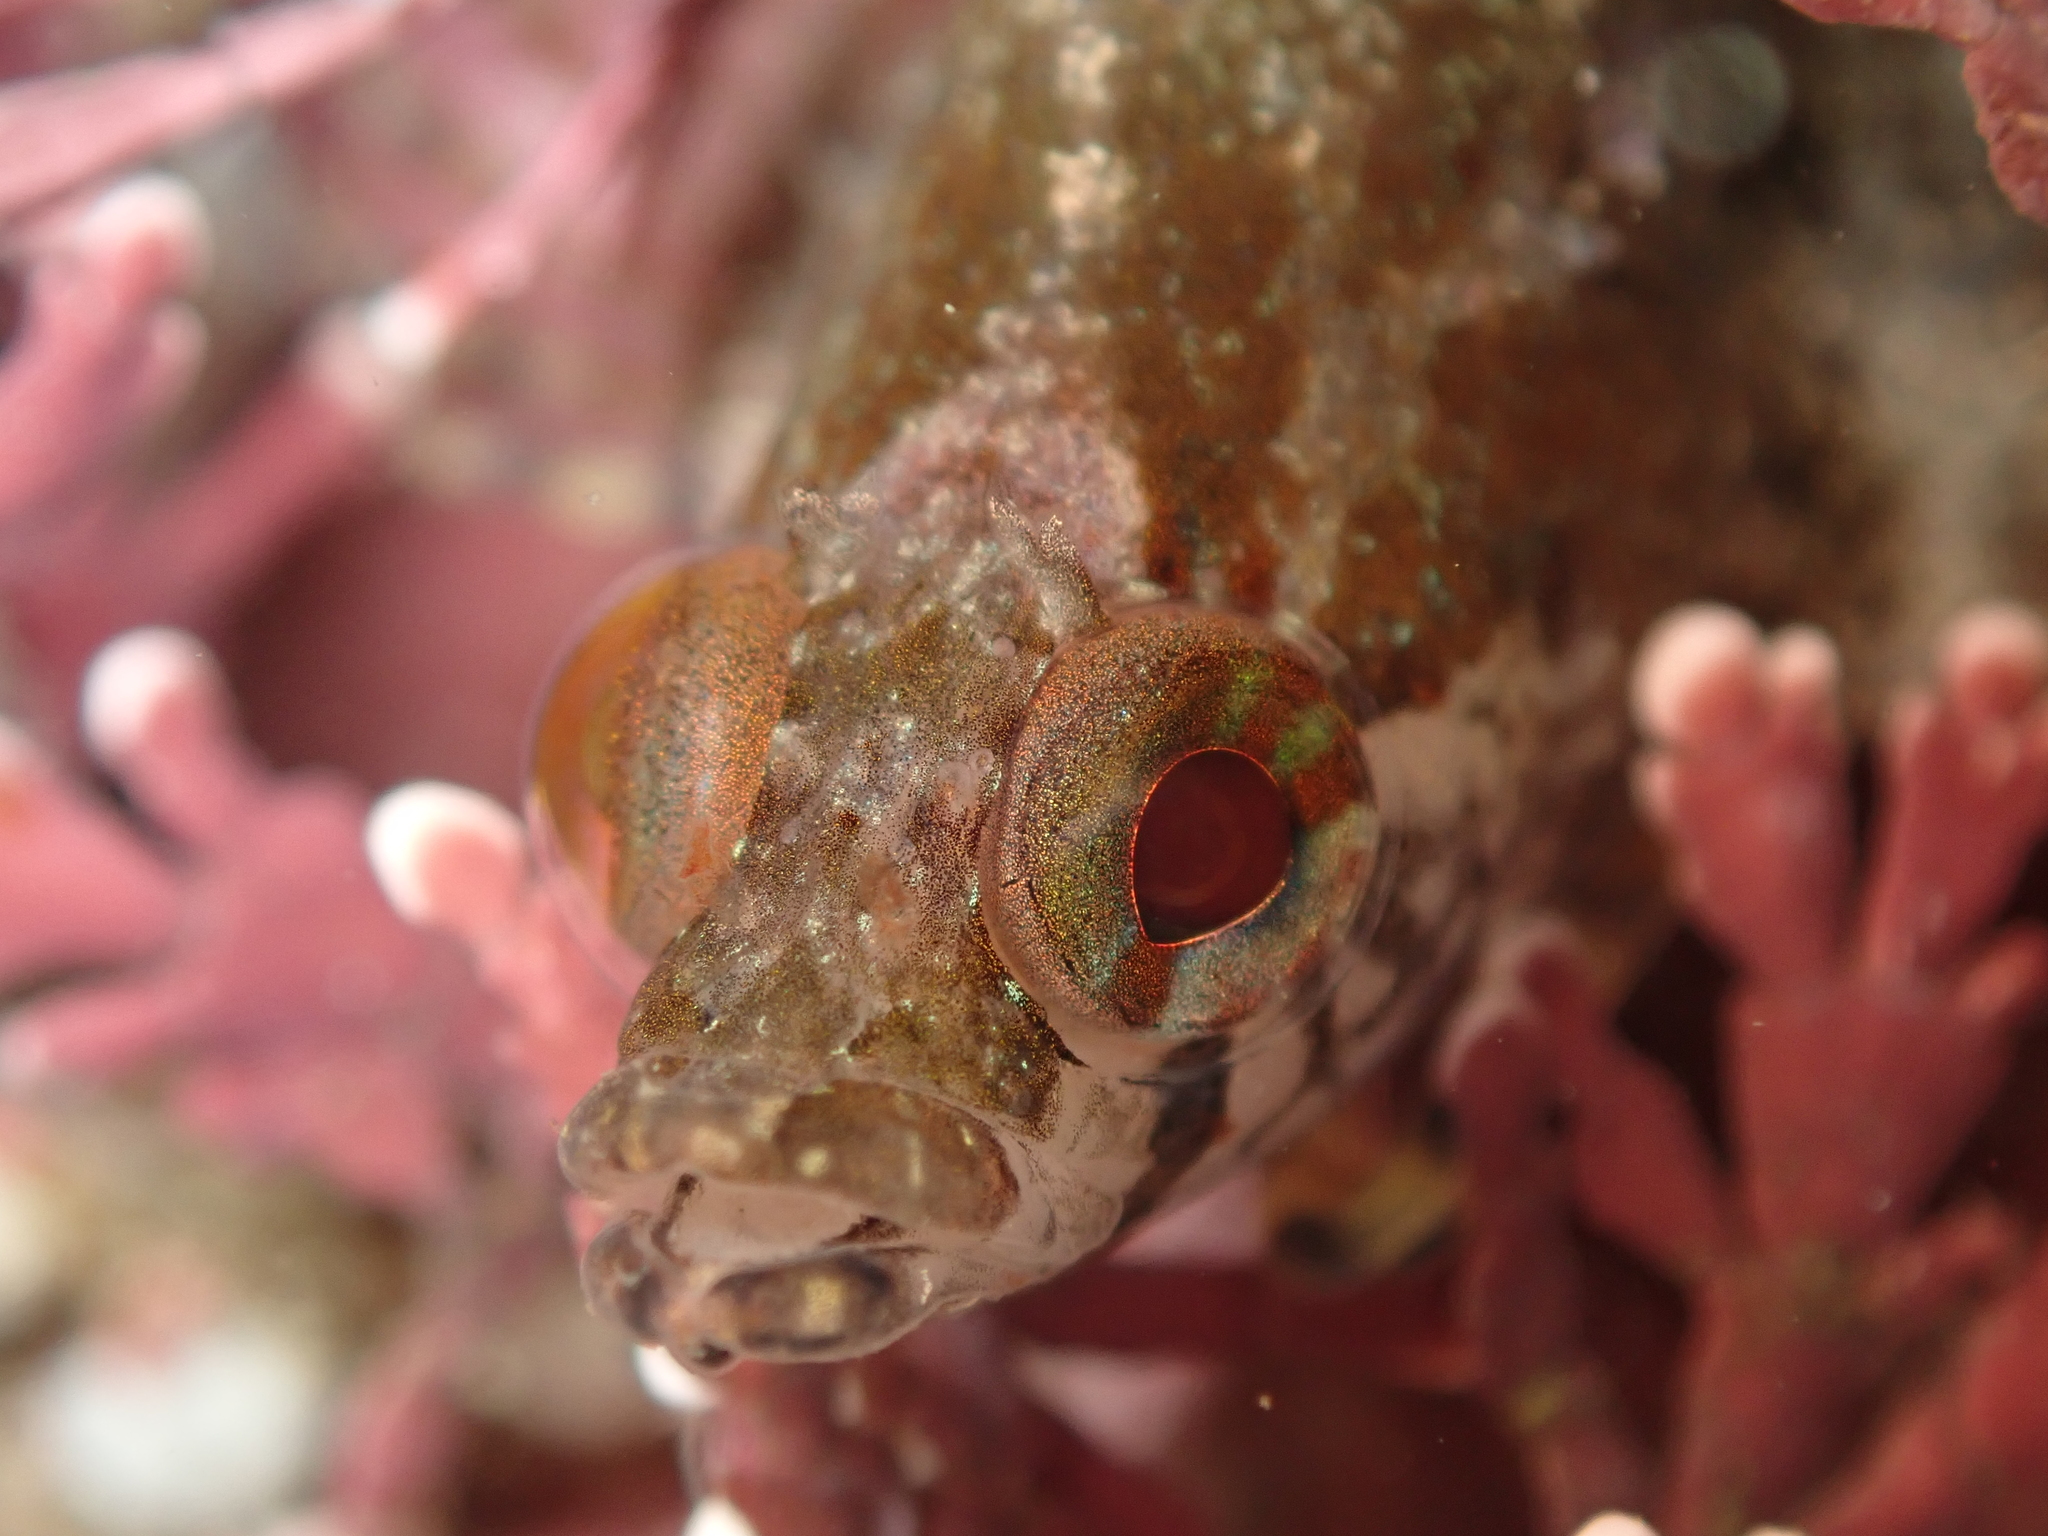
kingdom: Animalia
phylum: Chordata
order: Perciformes
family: Clinidae
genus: Ericentrus
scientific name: Ericentrus rubrus
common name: Orange clinid
